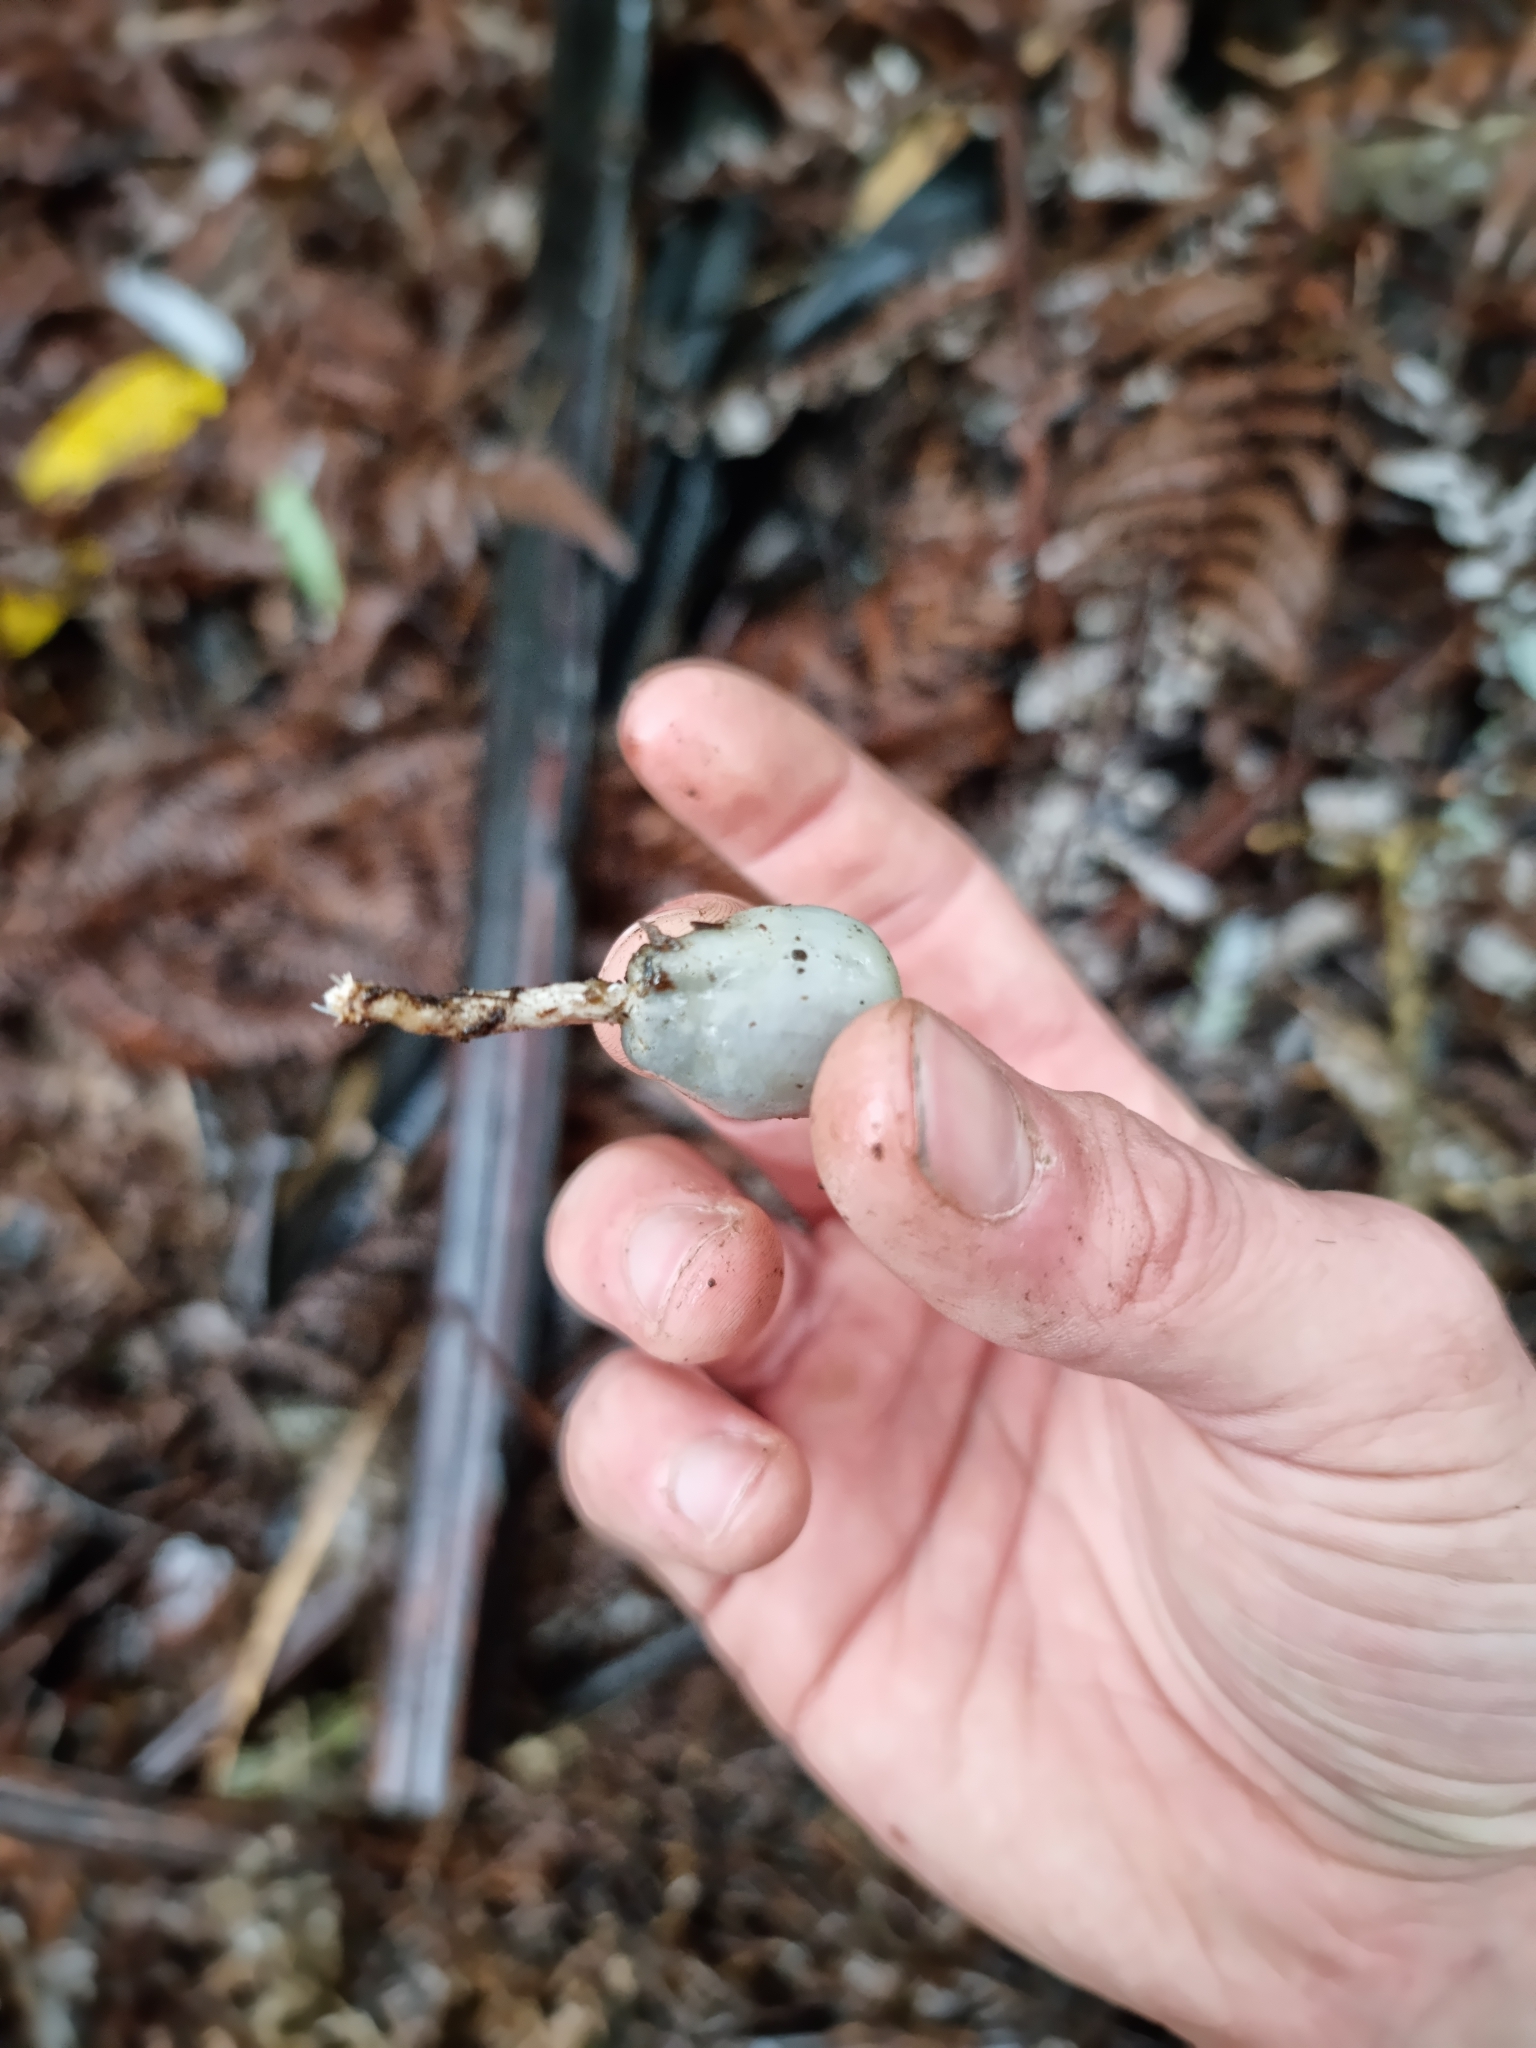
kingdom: Fungi
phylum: Basidiomycota
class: Agaricomycetes
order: Agaricales
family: Hymenogastraceae
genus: Psilocybe
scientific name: Psilocybe weraroa
